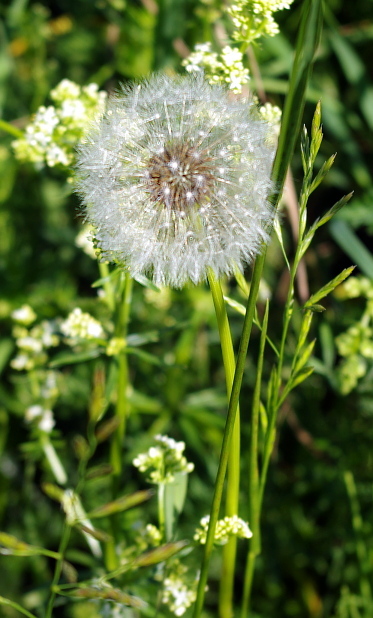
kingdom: Plantae
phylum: Tracheophyta
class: Magnoliopsida
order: Asterales
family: Asteraceae
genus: Taraxacum
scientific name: Taraxacum officinale
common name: Common dandelion
